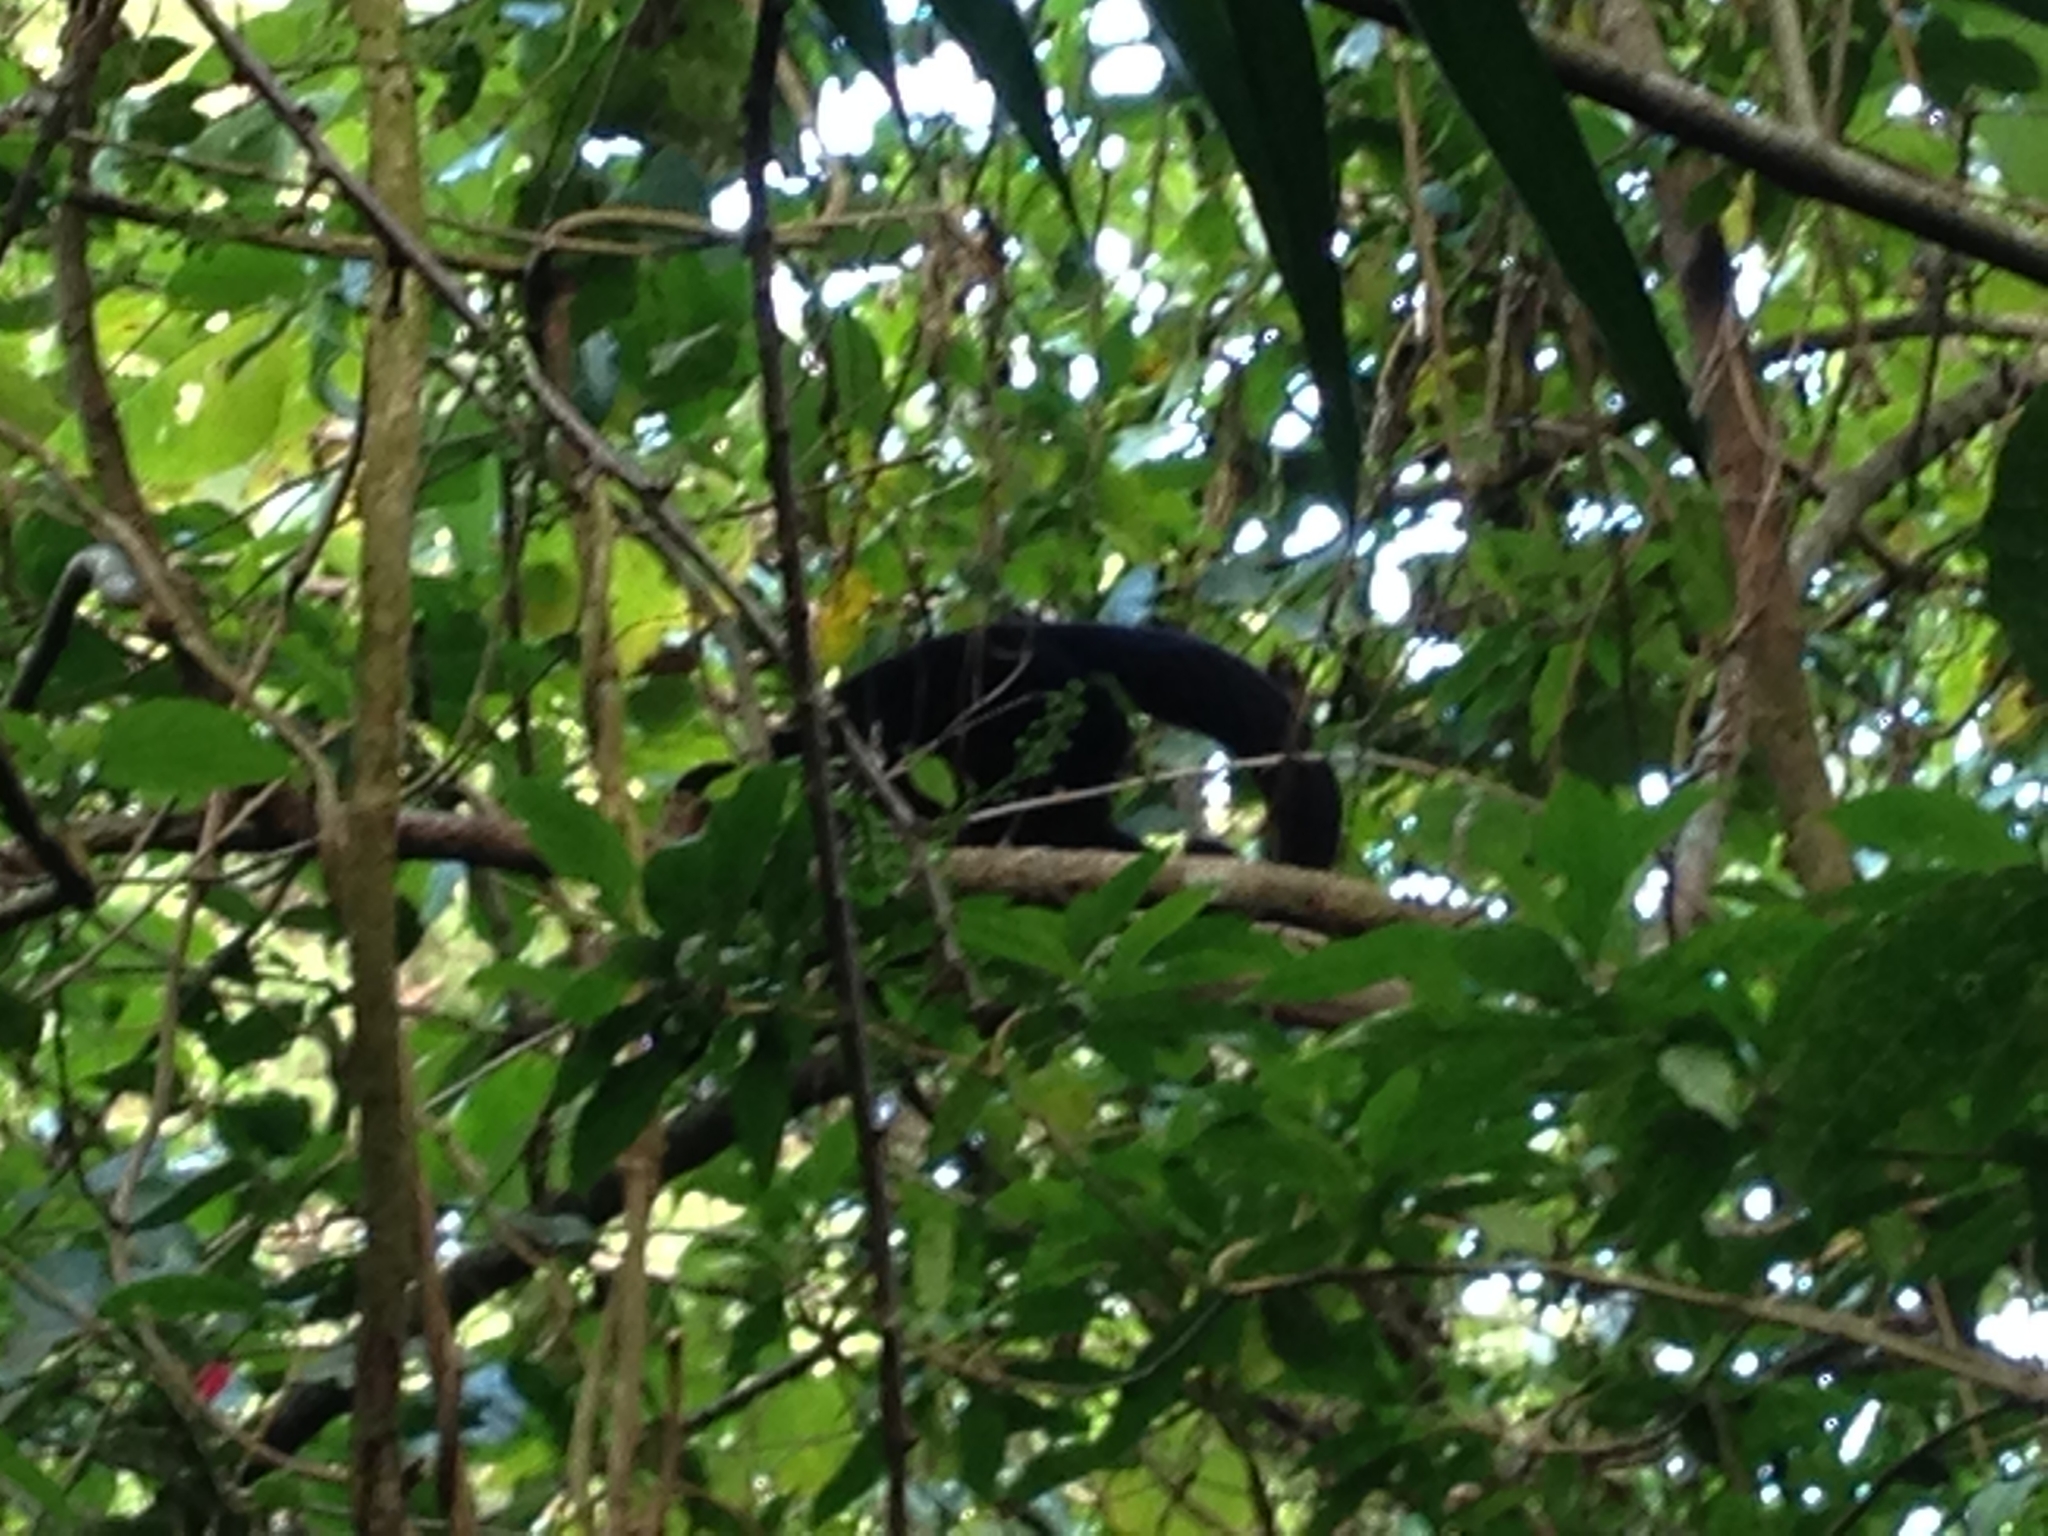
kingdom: Animalia
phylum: Chordata
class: Mammalia
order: Primates
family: Cebidae
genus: Cebus
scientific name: Cebus imitator
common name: Panamanian white-faced capuchin
